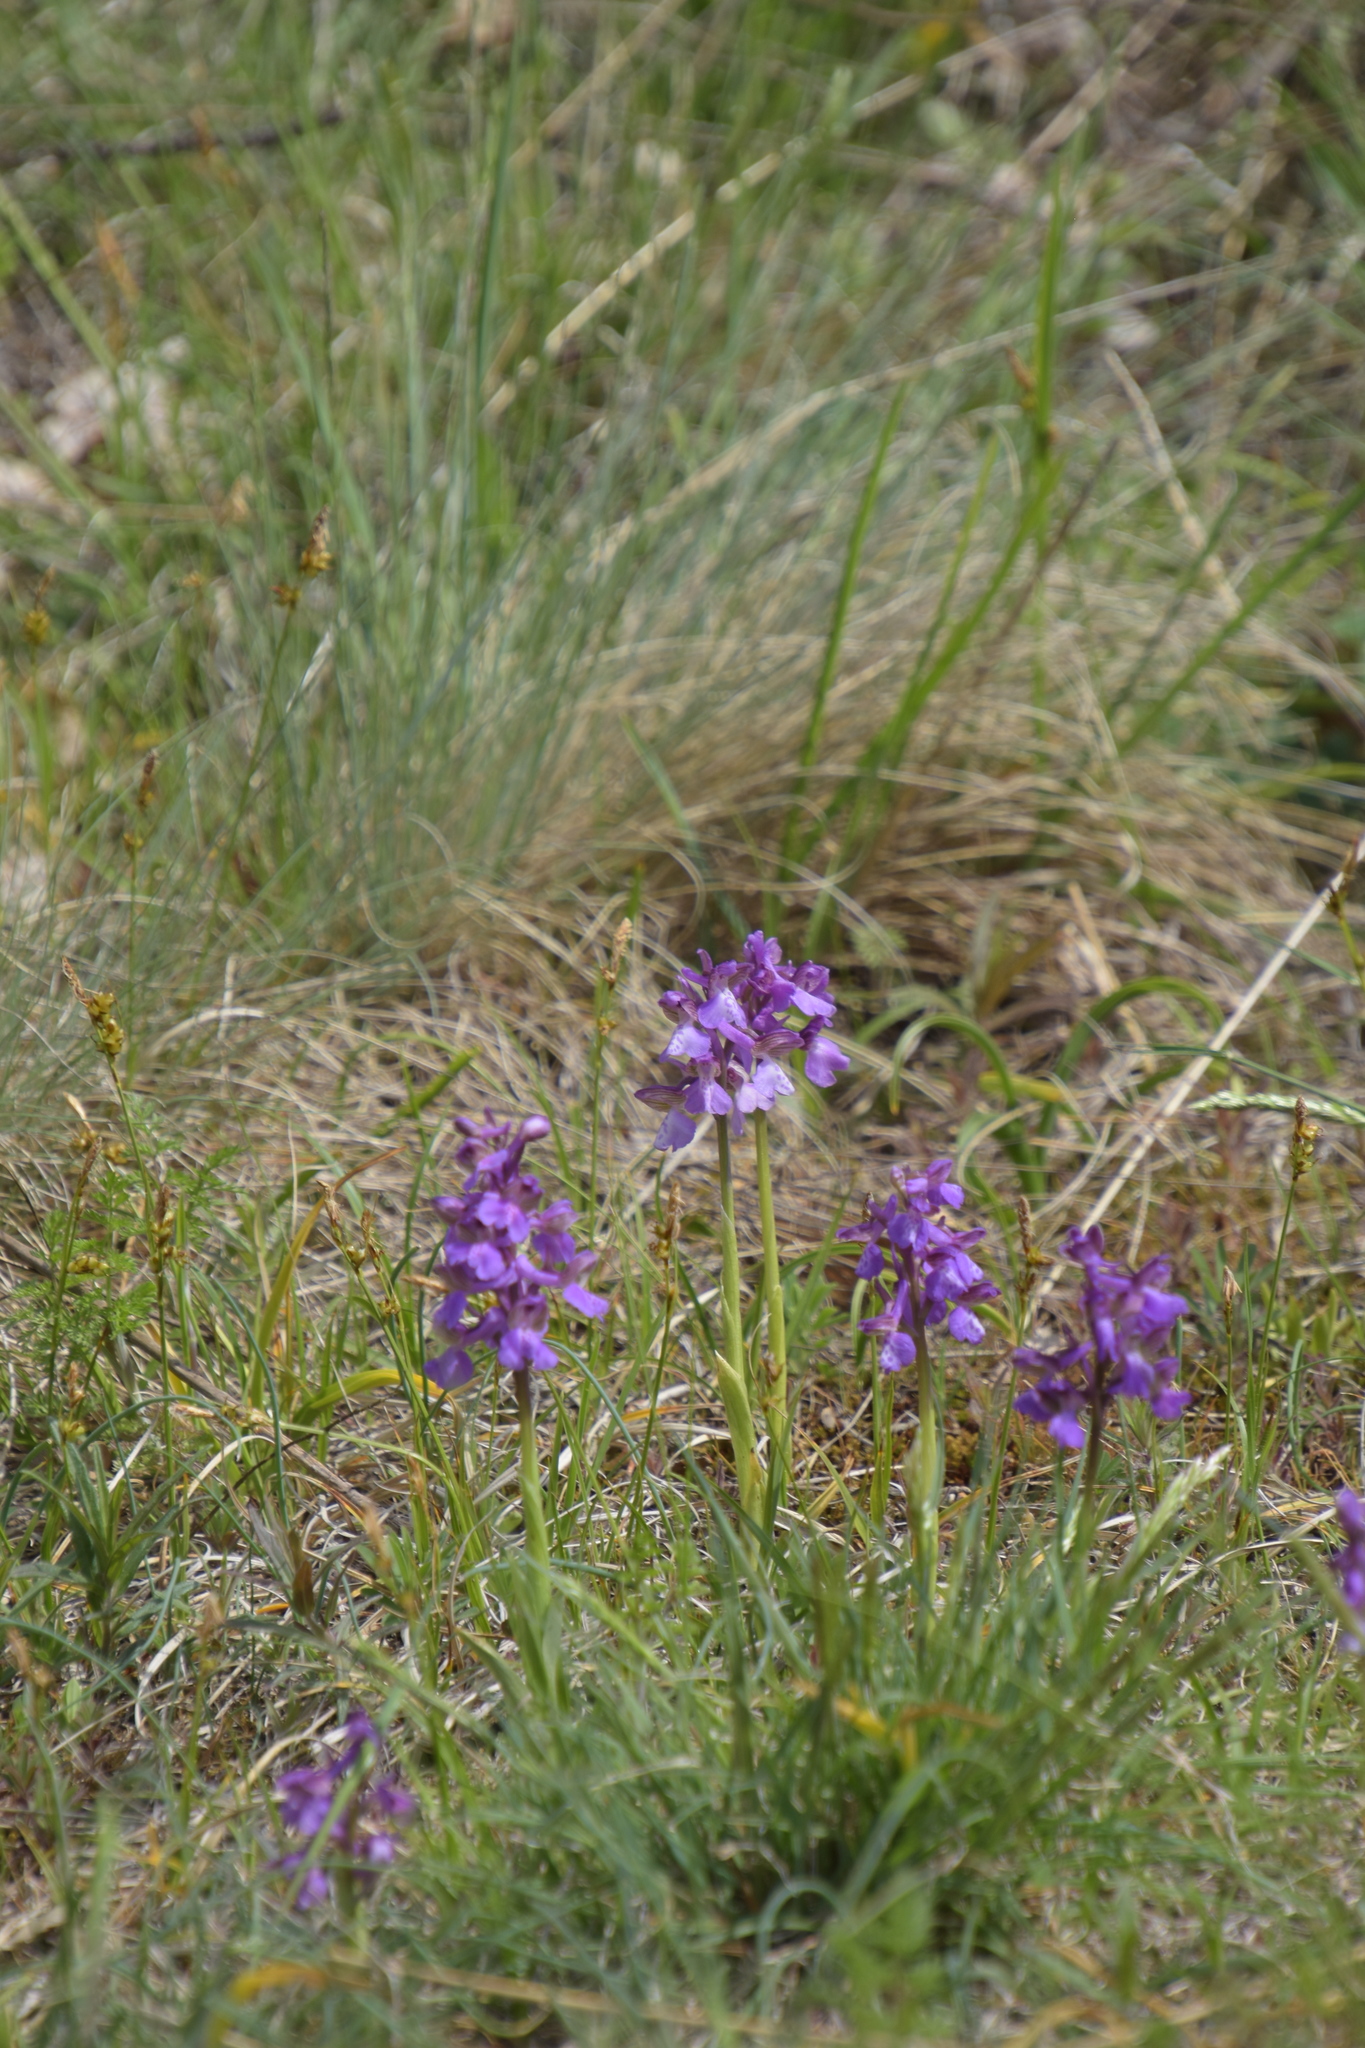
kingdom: Plantae
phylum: Tracheophyta
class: Liliopsida
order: Asparagales
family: Orchidaceae
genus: Anacamptis
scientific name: Anacamptis morio
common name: Green-winged orchid
